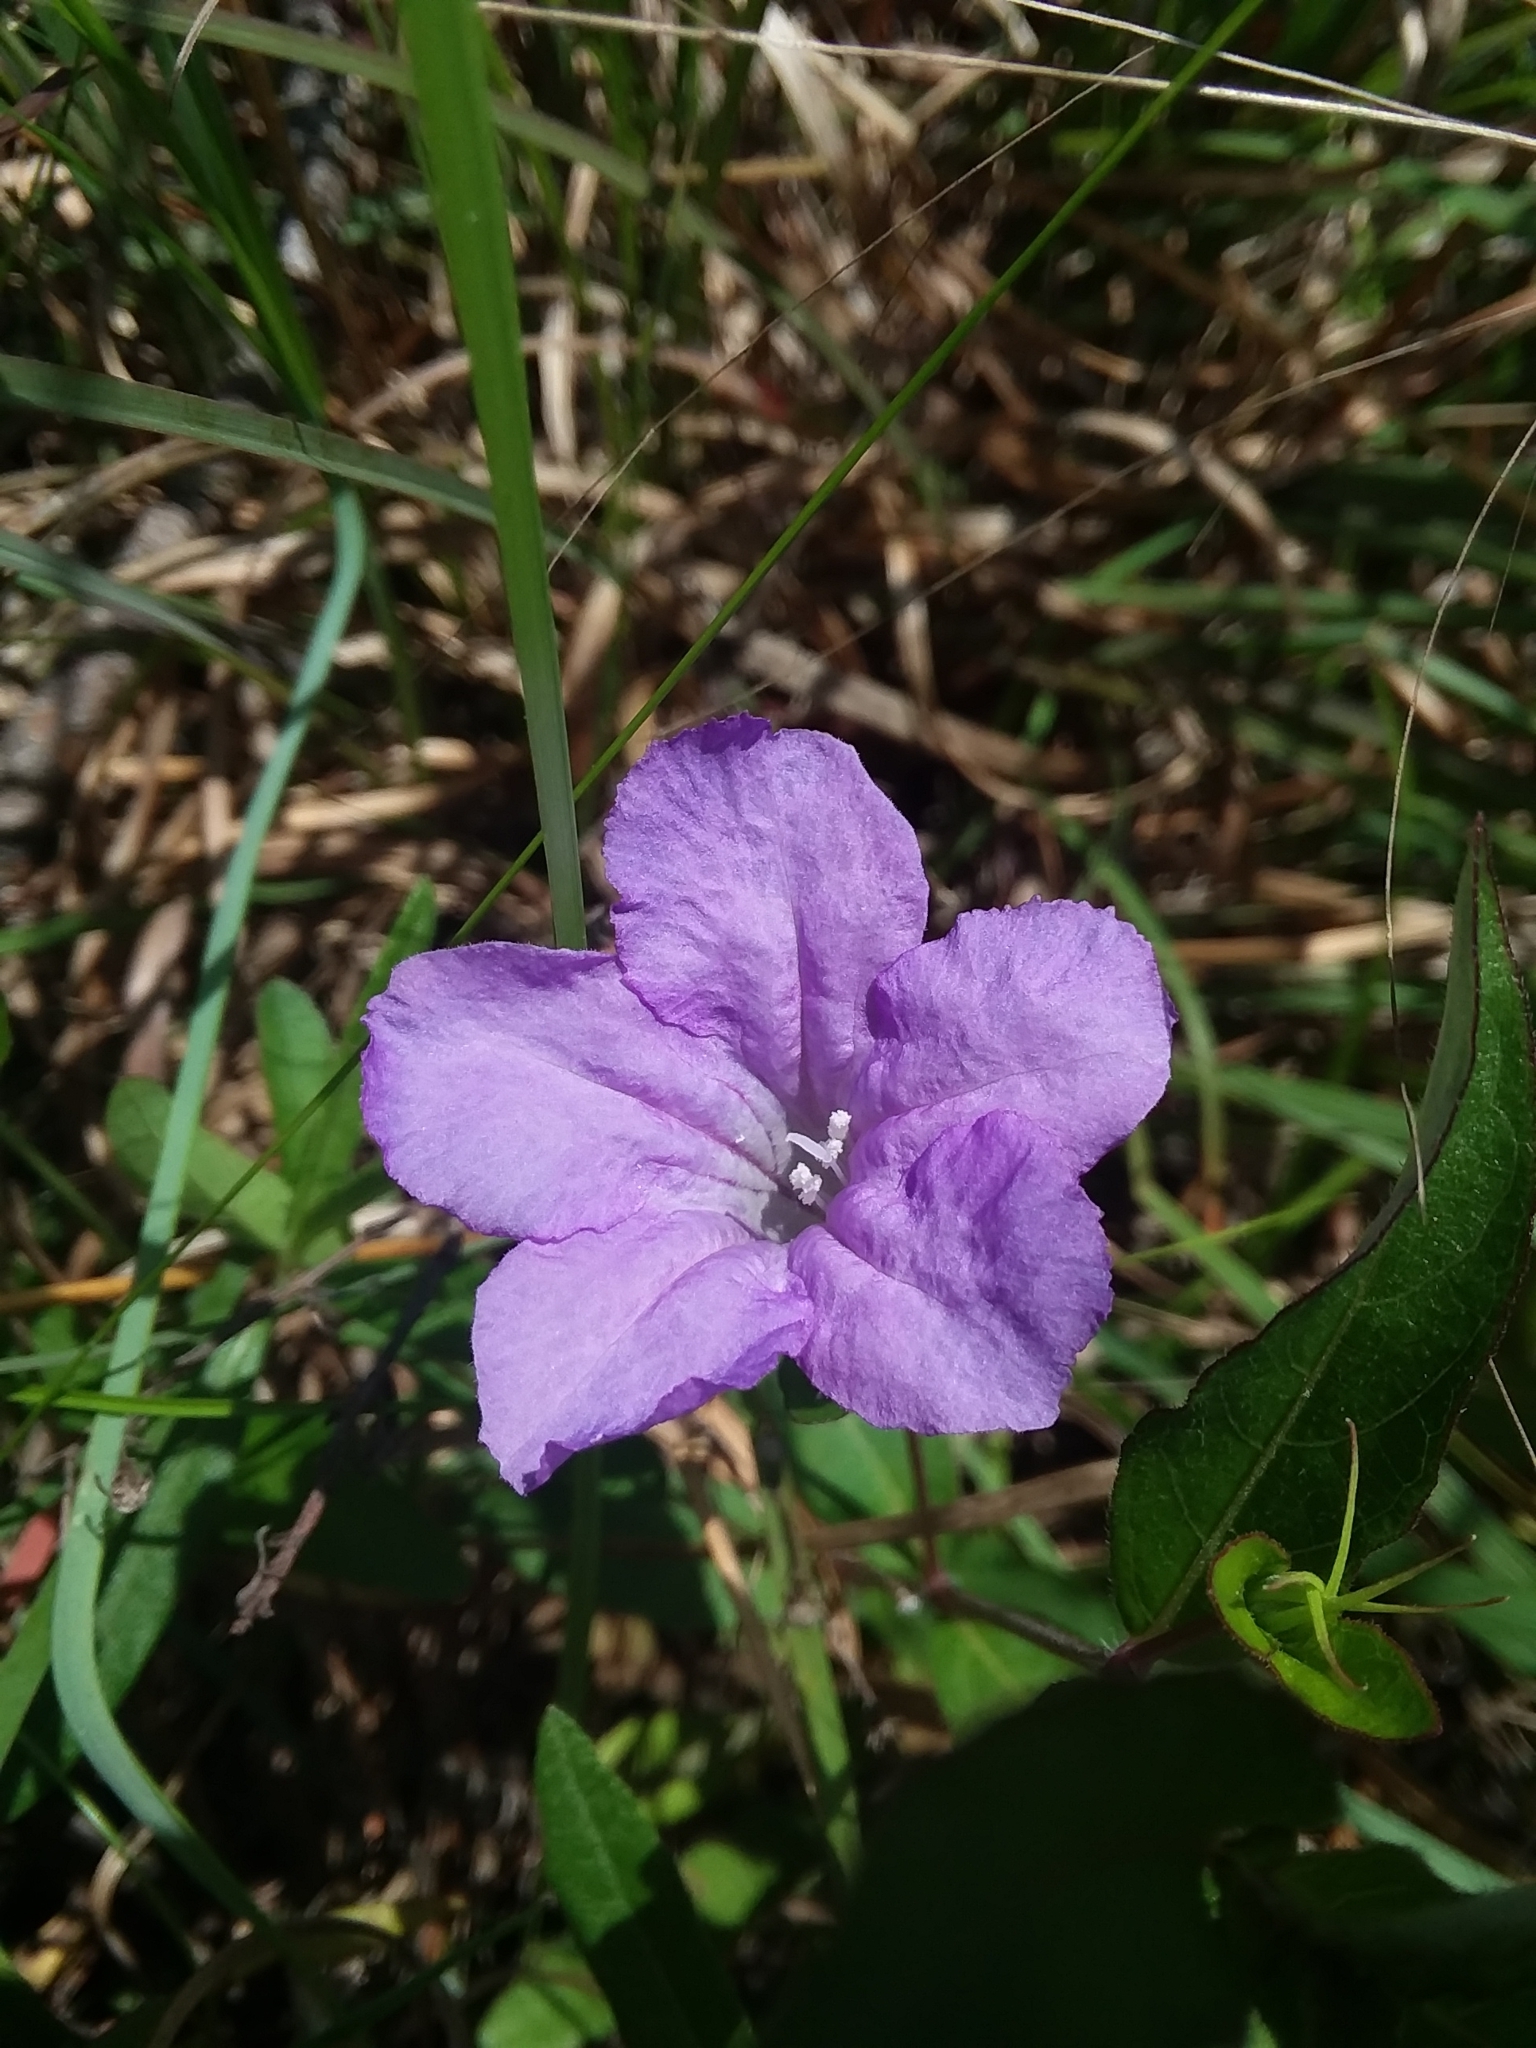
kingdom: Plantae
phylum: Tracheophyta
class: Magnoliopsida
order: Lamiales
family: Acanthaceae
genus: Ruellia
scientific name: Ruellia pedunculata
